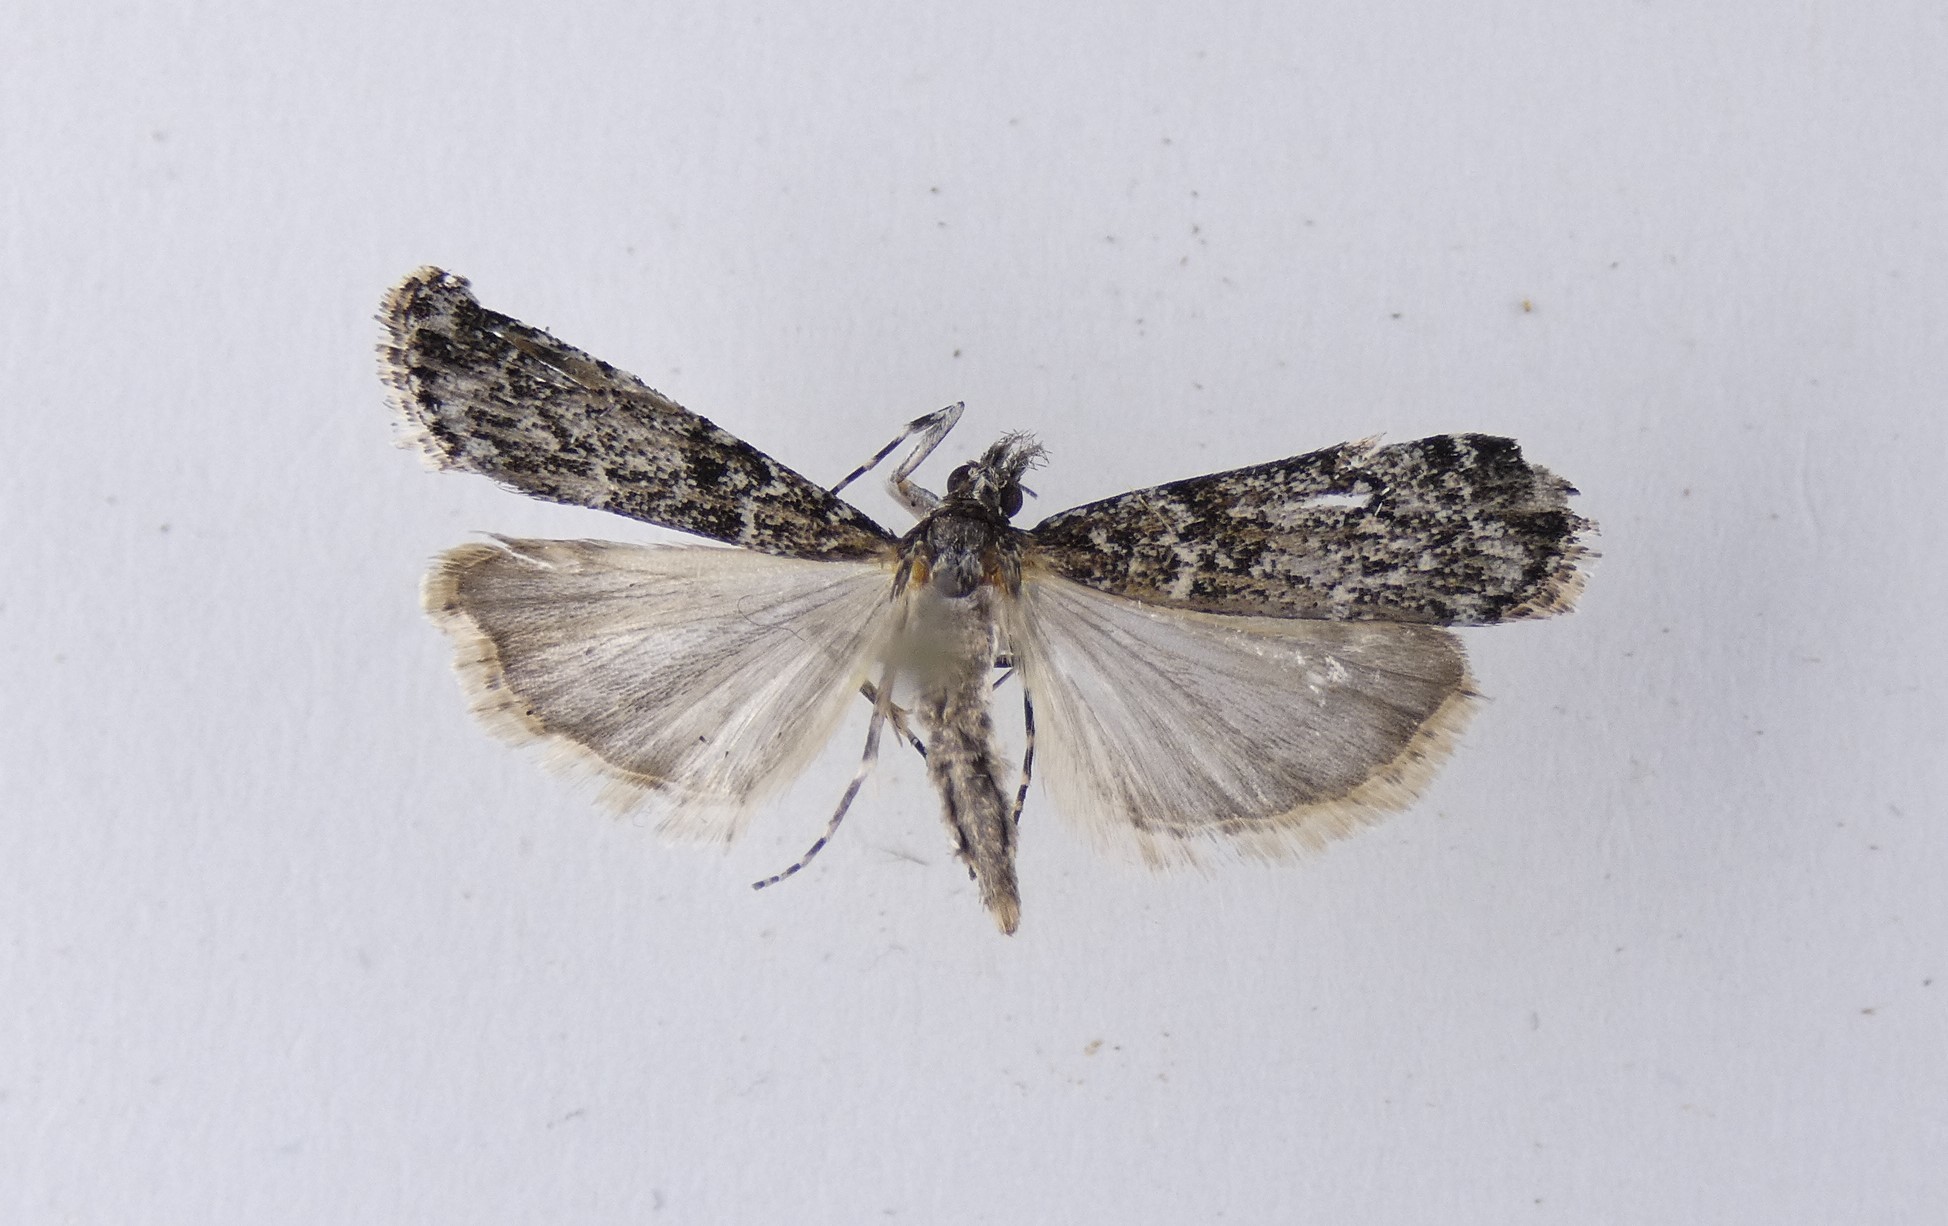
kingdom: Animalia
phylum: Arthropoda
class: Insecta
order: Lepidoptera
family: Crambidae
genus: Eudonia
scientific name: Eudonia philerga
